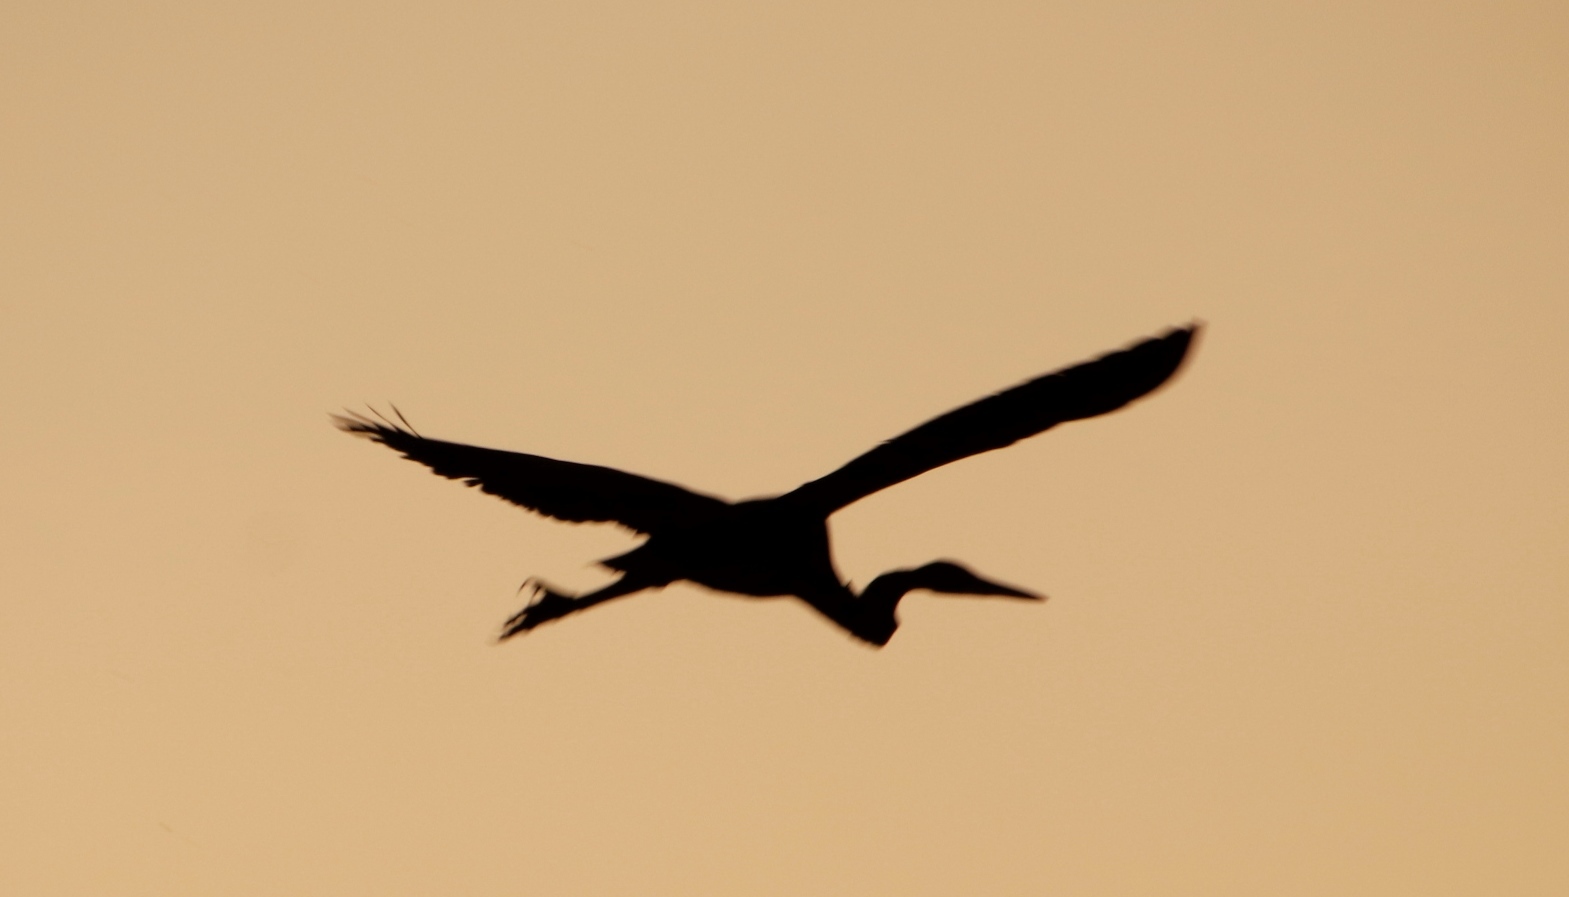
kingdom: Animalia
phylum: Chordata
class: Aves
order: Pelecaniformes
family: Ardeidae
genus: Ardea
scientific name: Ardea purpurea
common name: Purple heron
